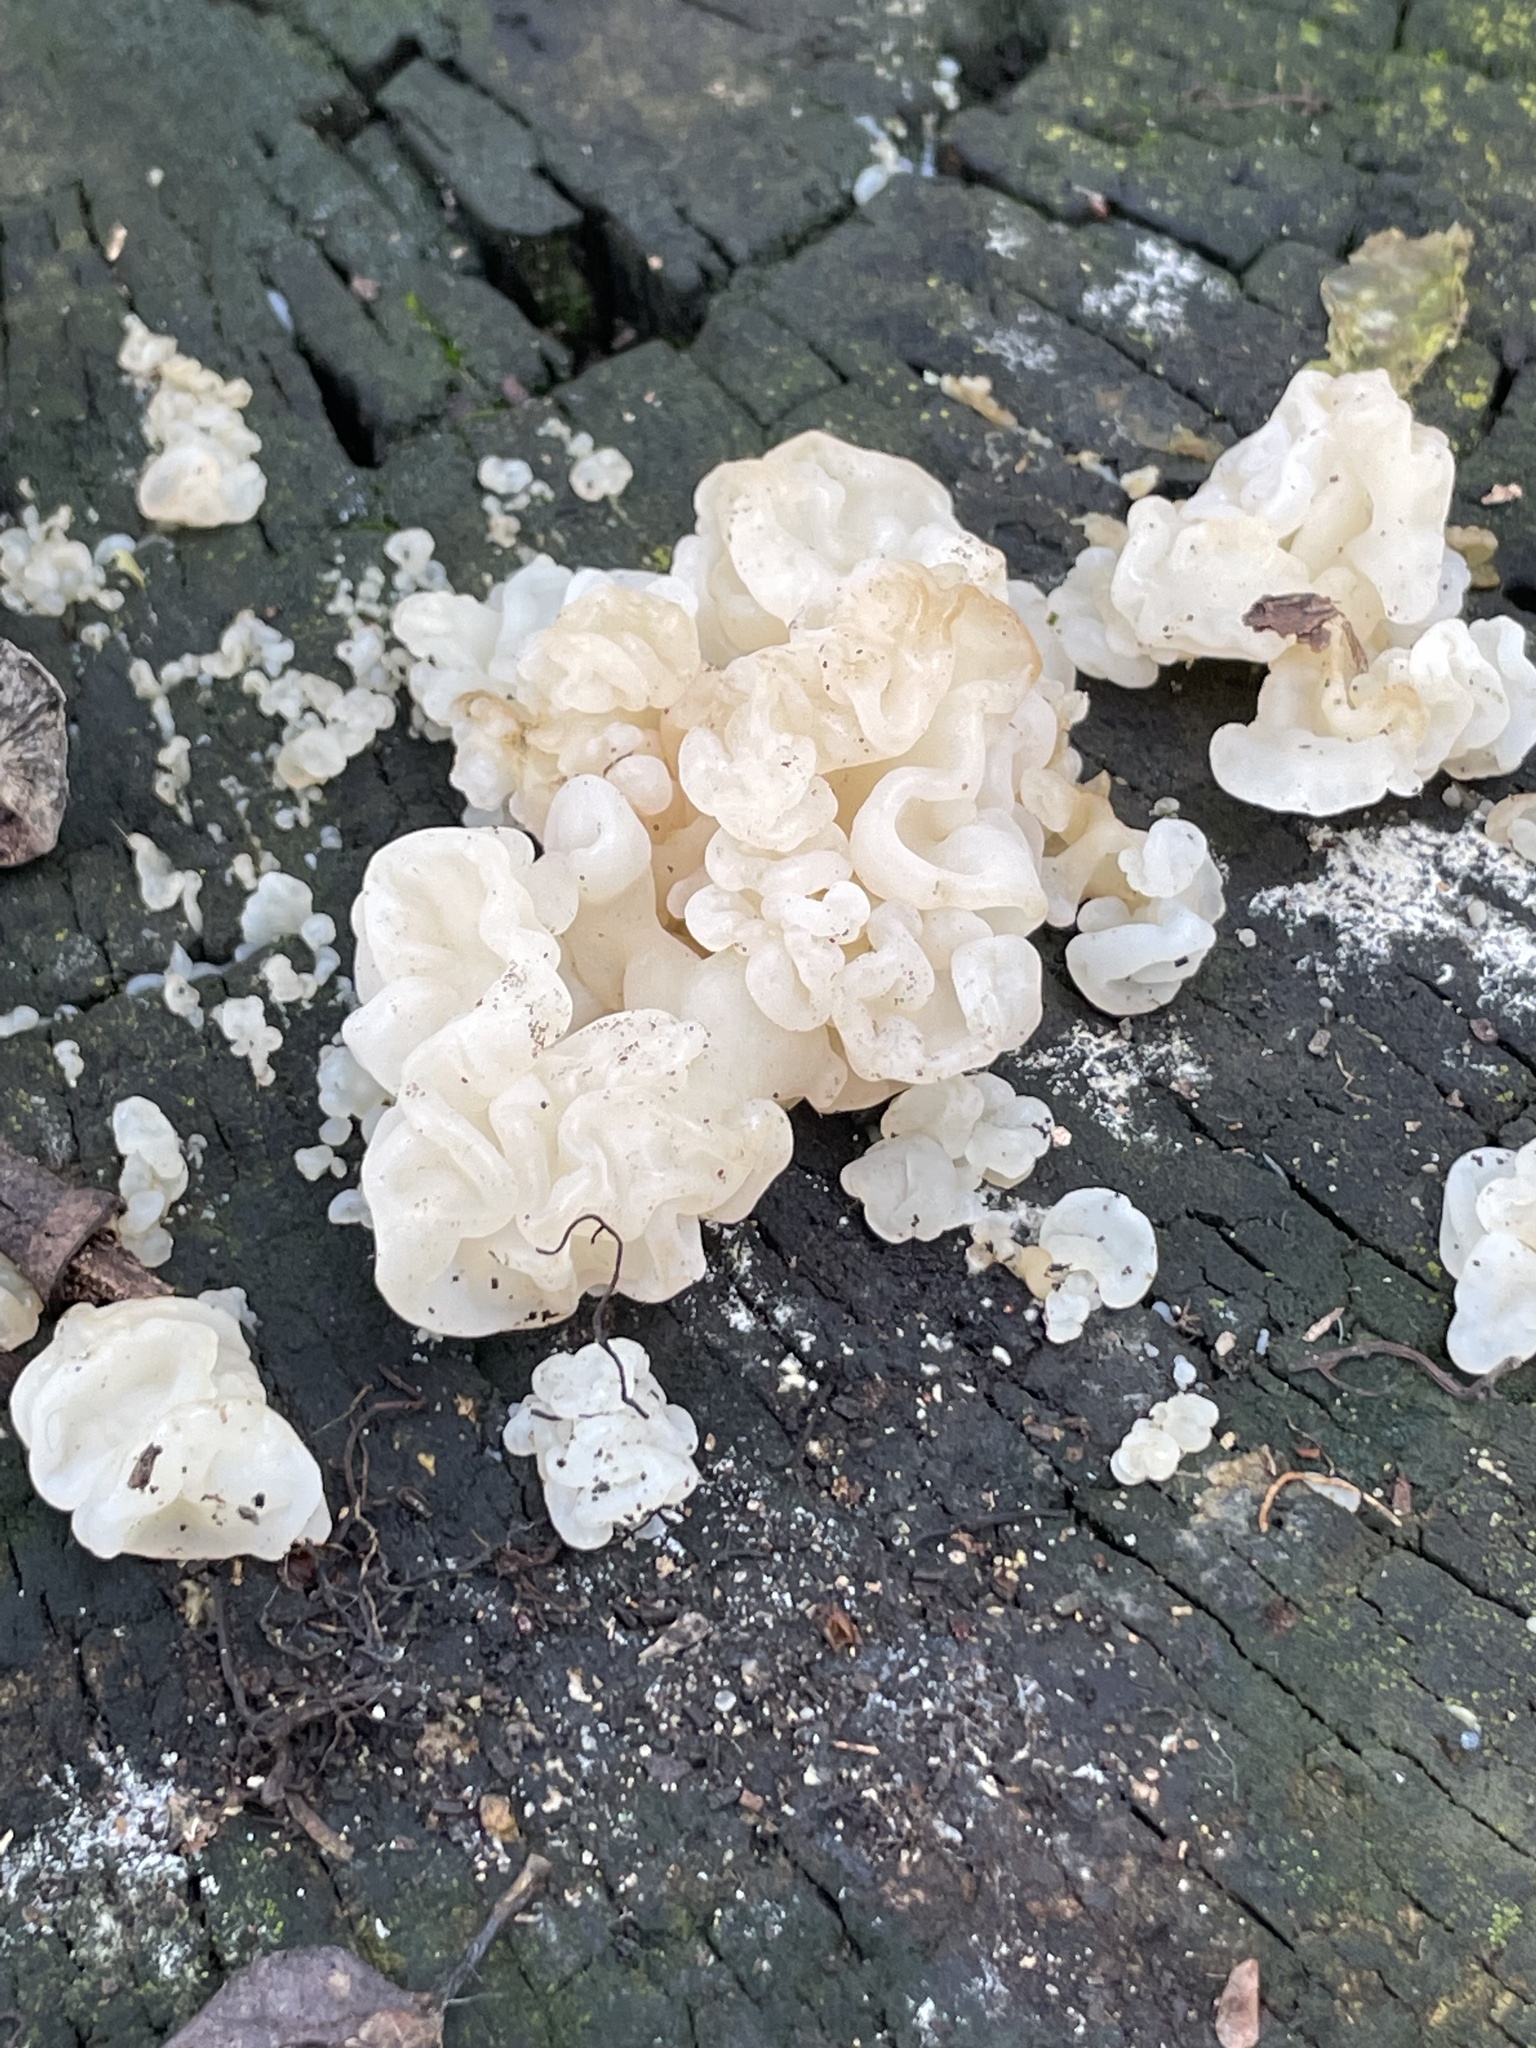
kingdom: Fungi
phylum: Basidiomycota
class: Agaricomycetes
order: Auriculariales
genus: Ductifera
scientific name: Ductifera pululahuana
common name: White jelly fungus
